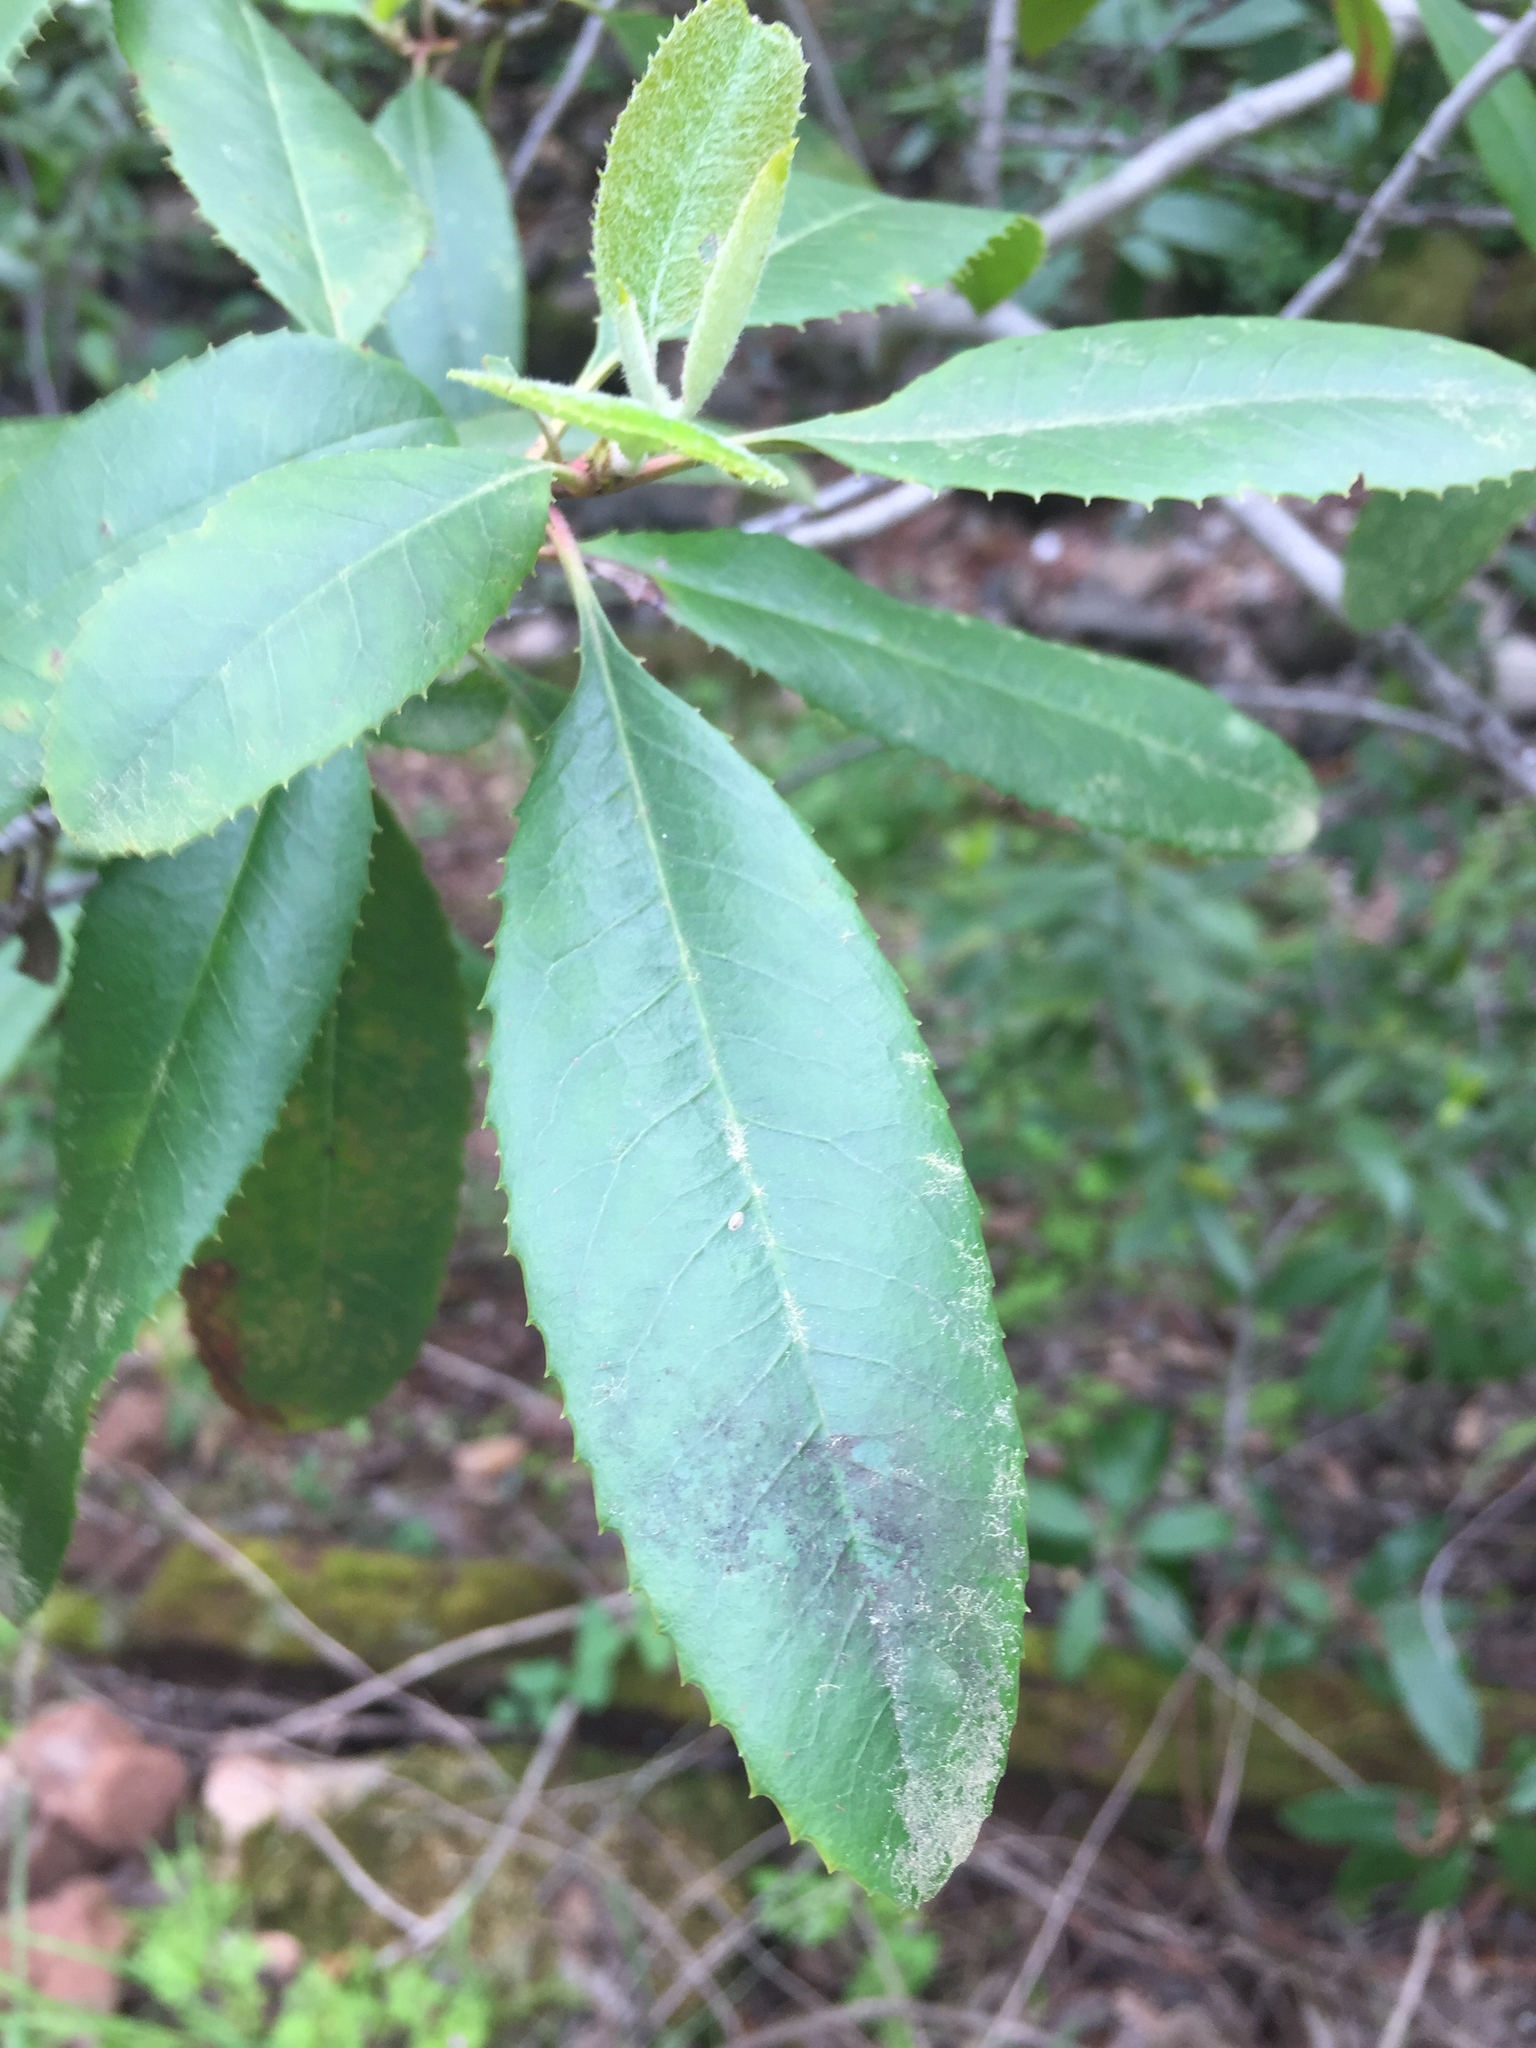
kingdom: Plantae
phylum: Tracheophyta
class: Magnoliopsida
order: Rosales
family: Rosaceae
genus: Heteromeles
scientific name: Heteromeles arbutifolia
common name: California-holly
